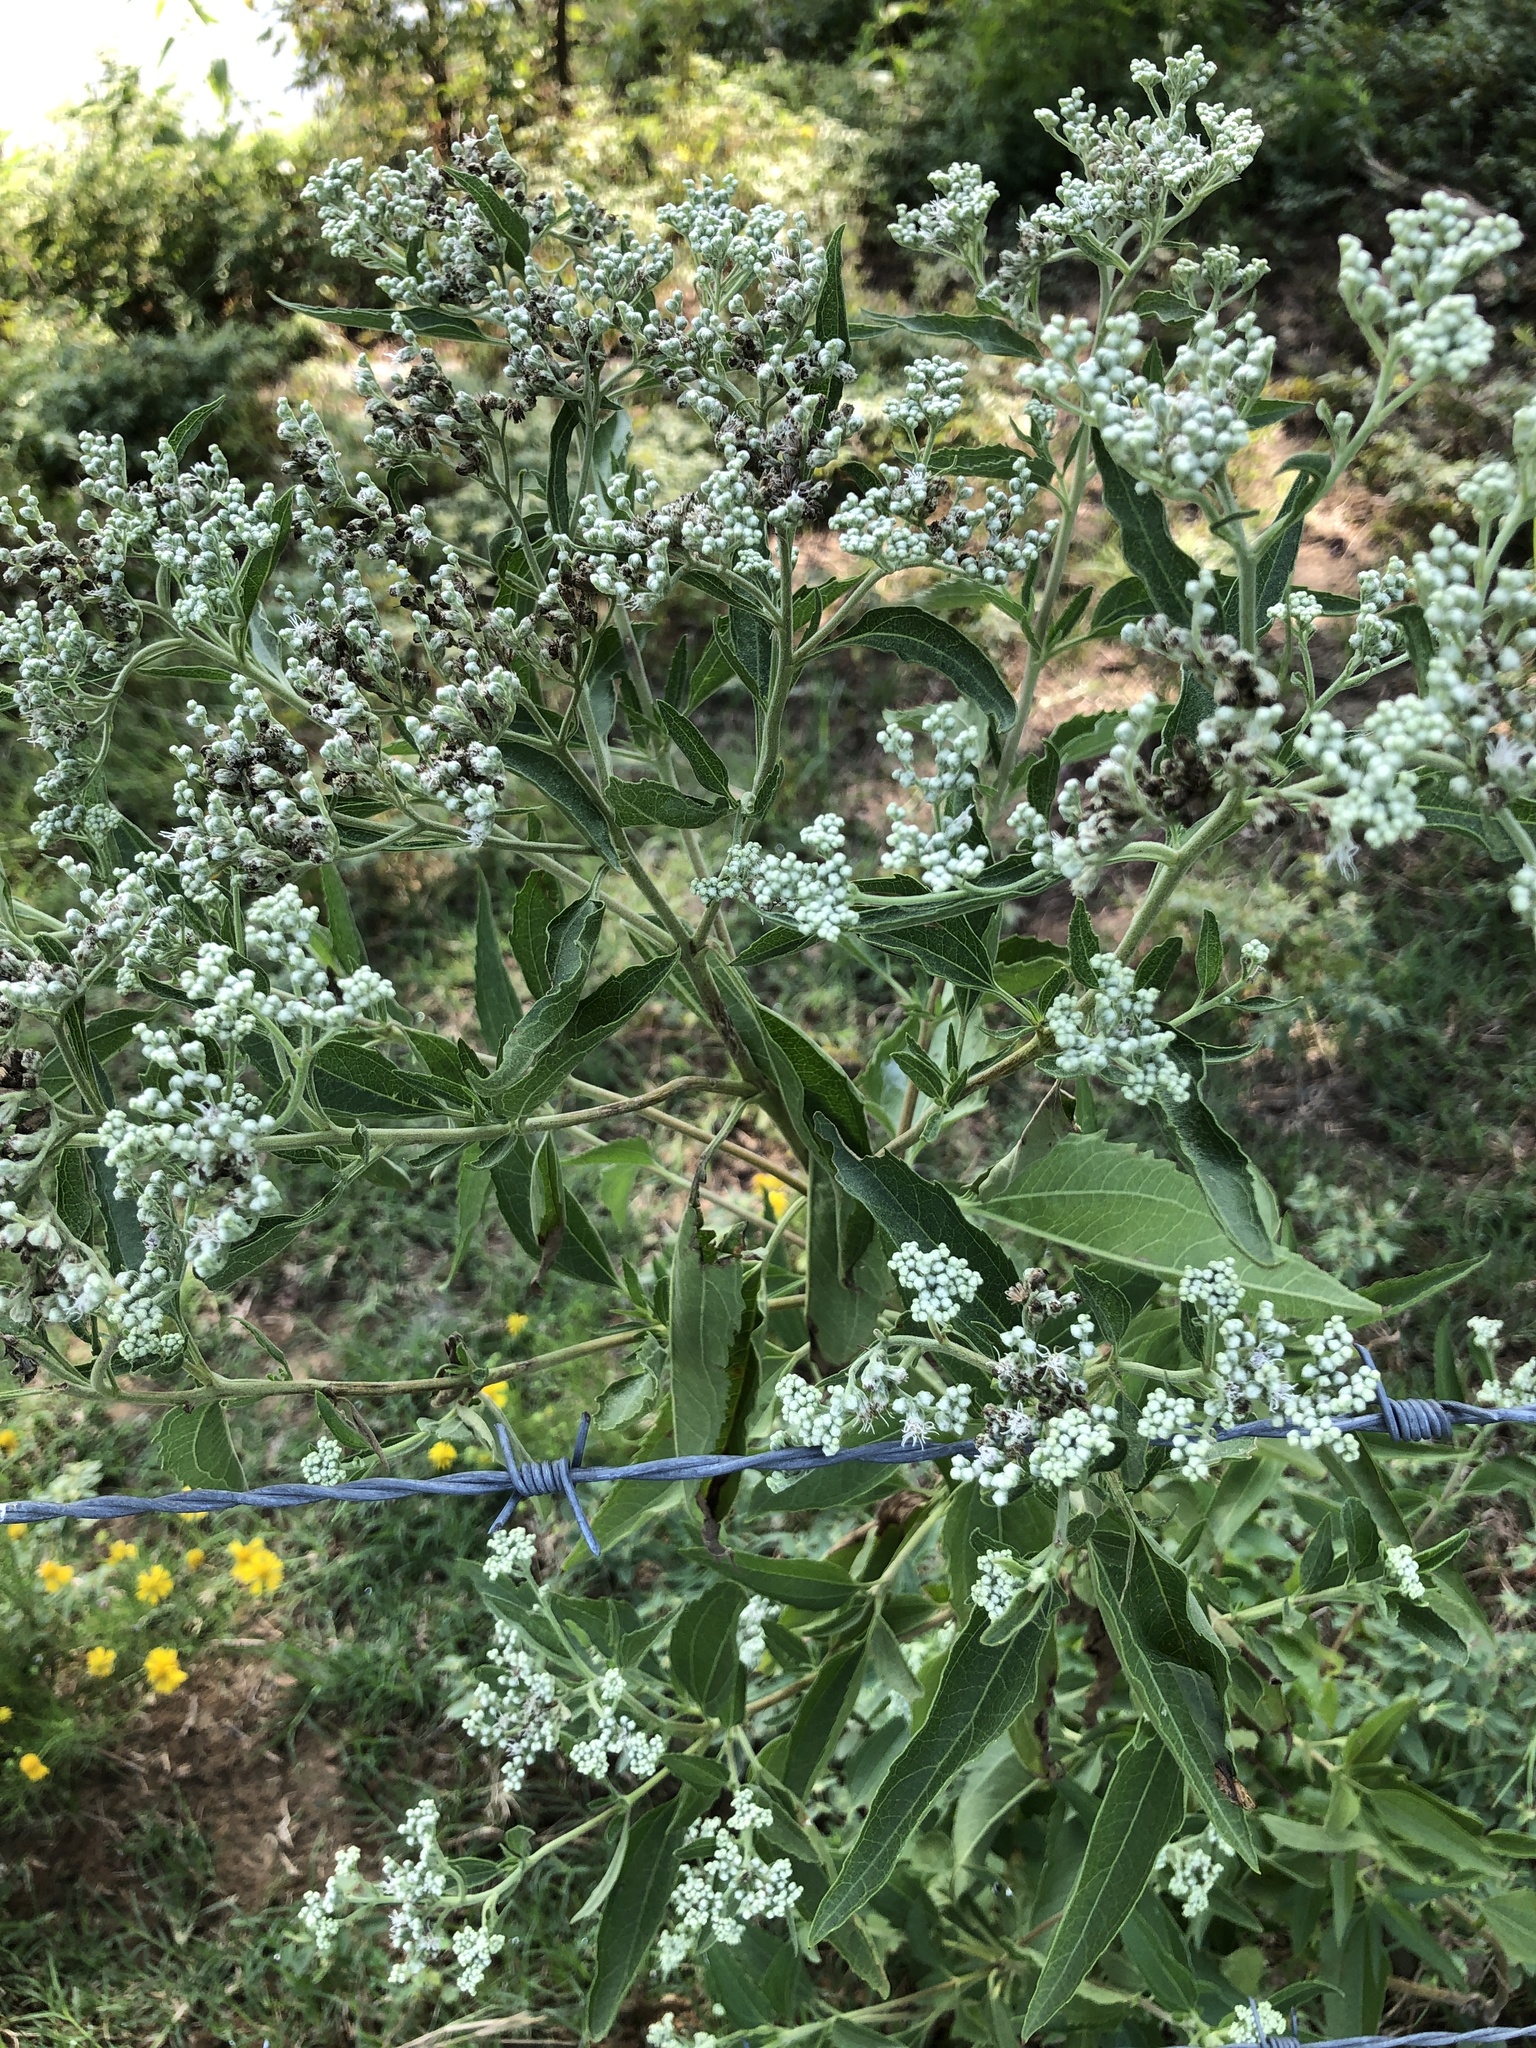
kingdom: Plantae
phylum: Tracheophyta
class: Magnoliopsida
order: Asterales
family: Asteraceae
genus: Eupatorium
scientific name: Eupatorium serotinum
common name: Late boneset
